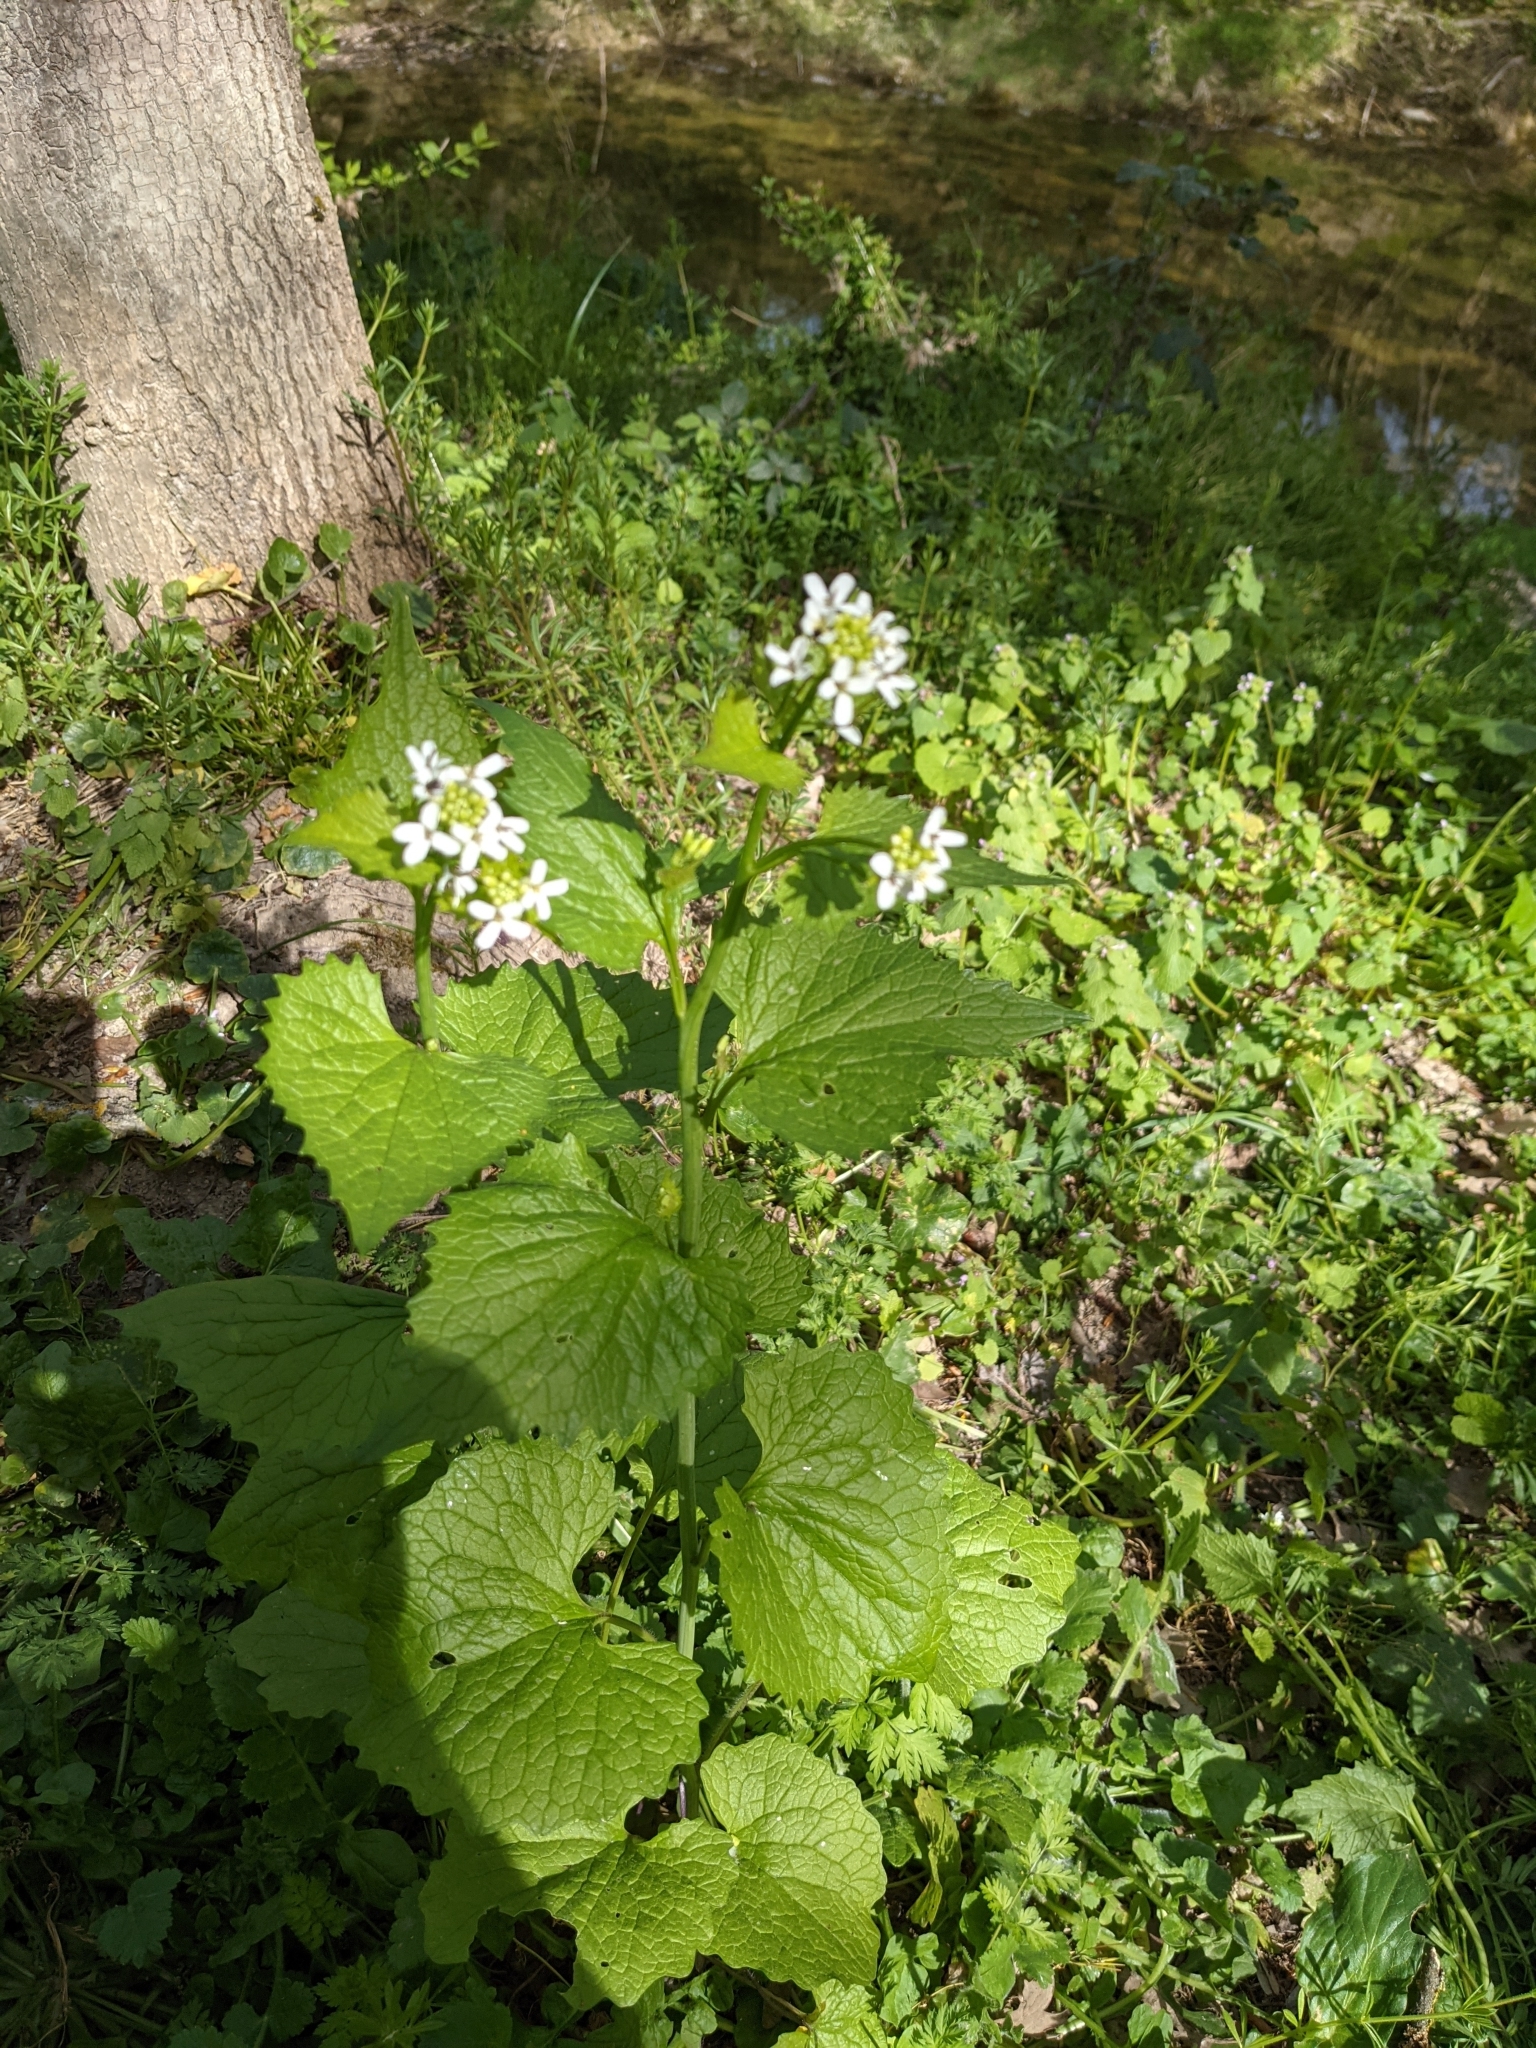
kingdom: Plantae
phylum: Tracheophyta
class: Magnoliopsida
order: Brassicales
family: Brassicaceae
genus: Alliaria
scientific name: Alliaria petiolata
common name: Garlic mustard
